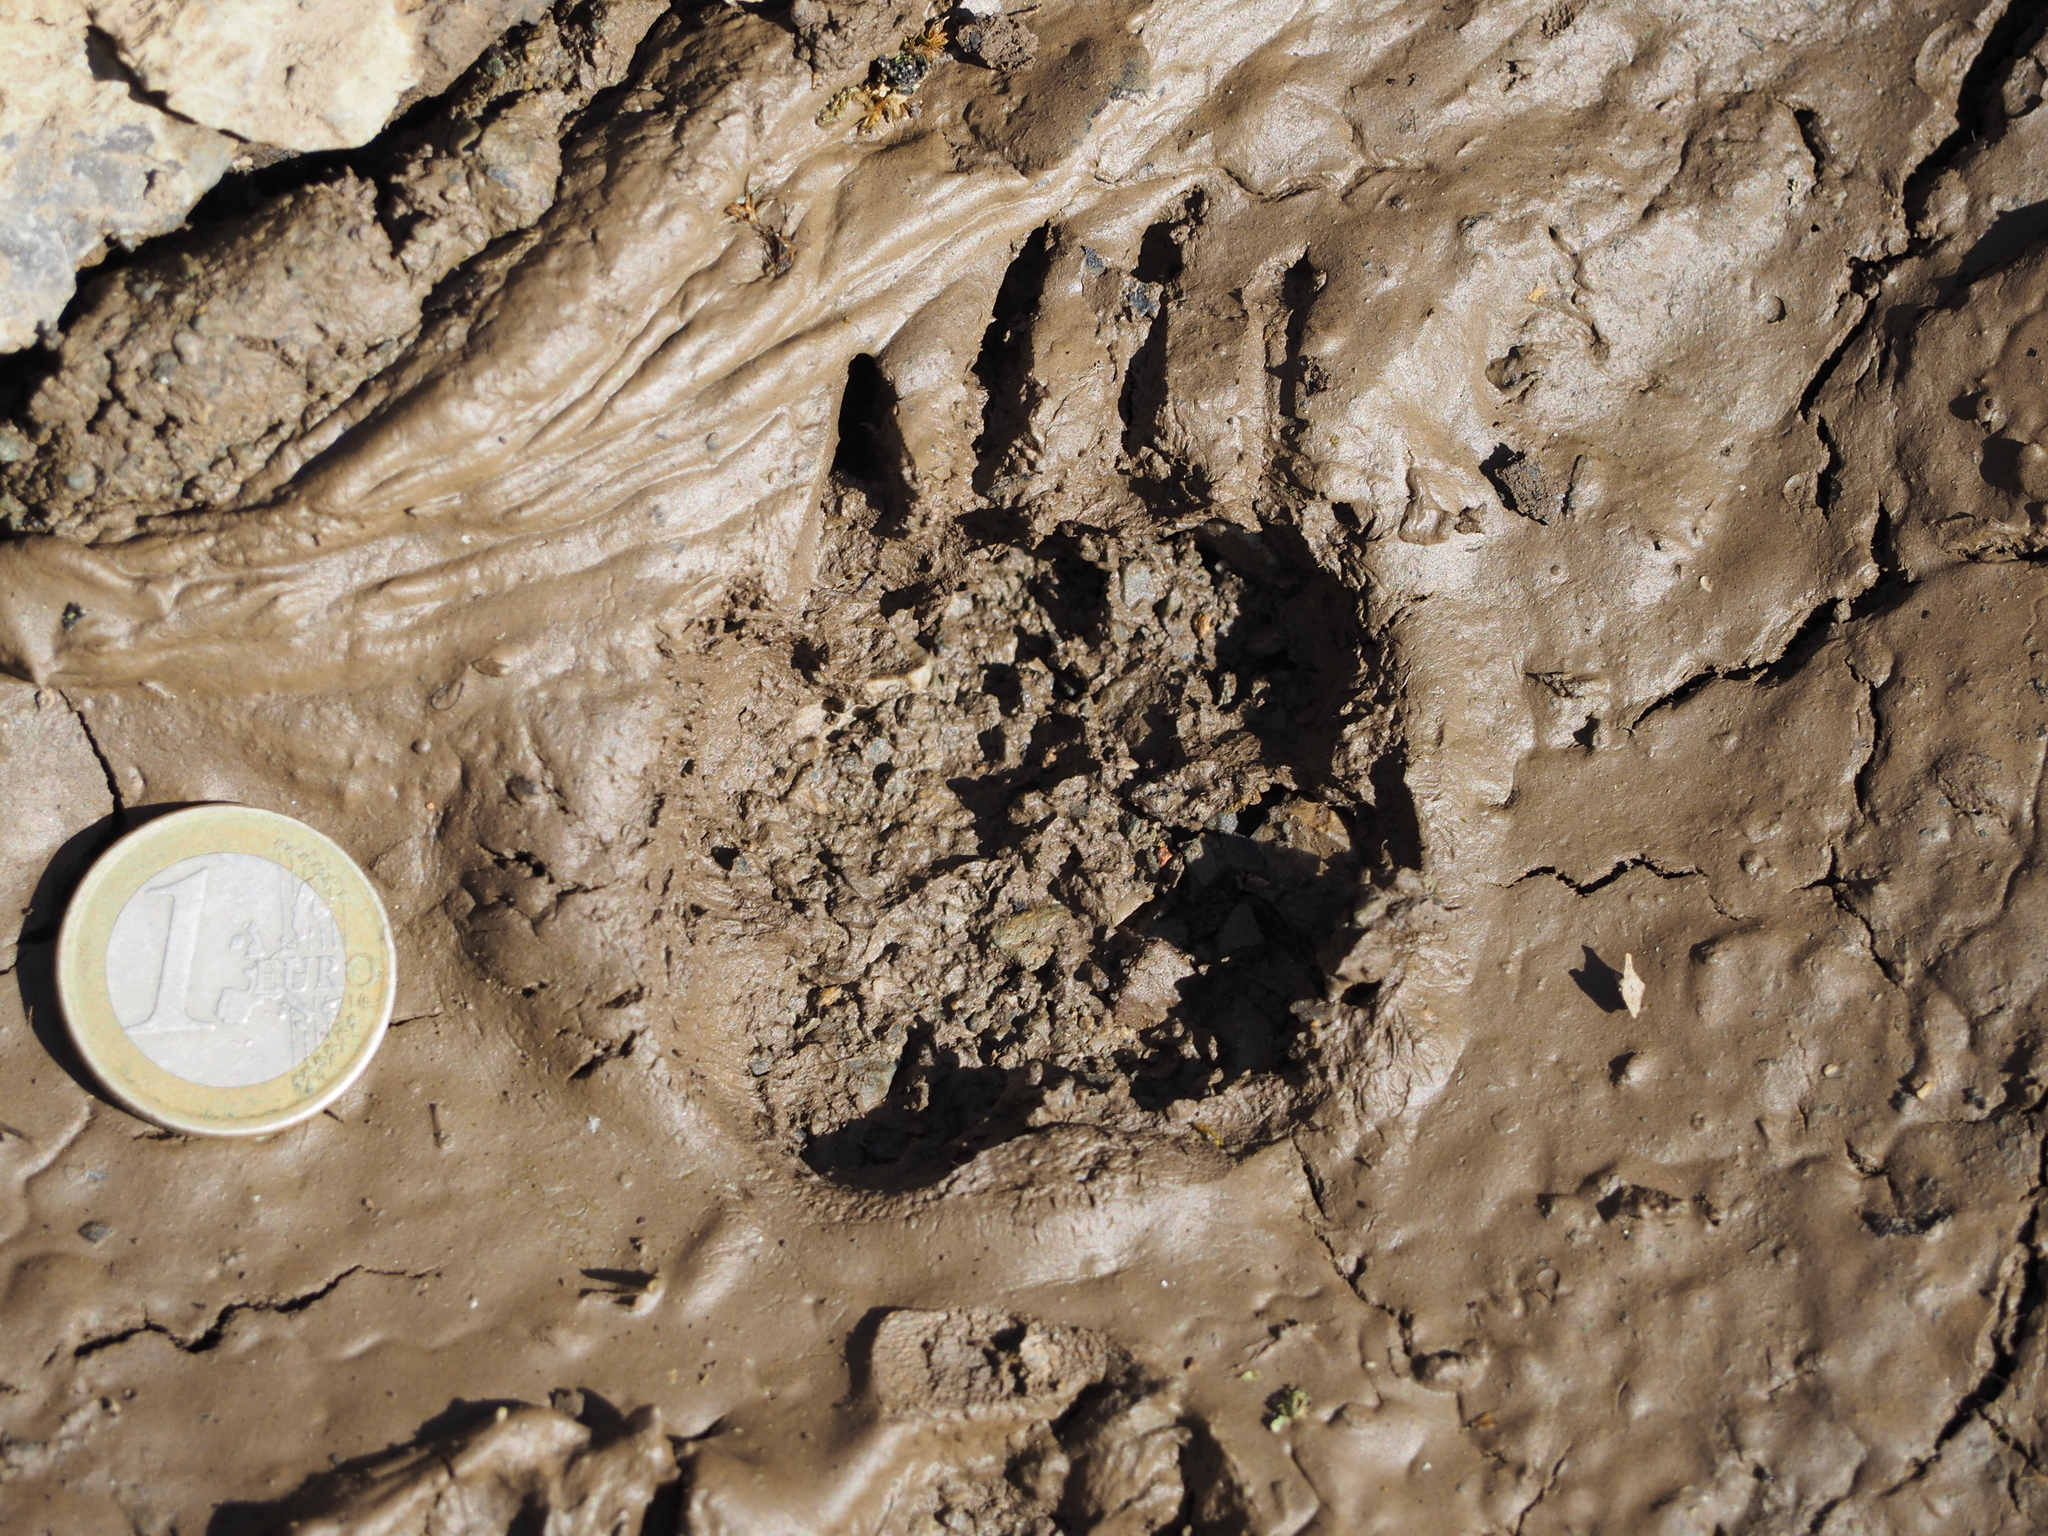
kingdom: Animalia
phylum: Chordata
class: Mammalia
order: Carnivora
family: Mustelidae
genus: Meles
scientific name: Meles meles
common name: Eurasian badger
